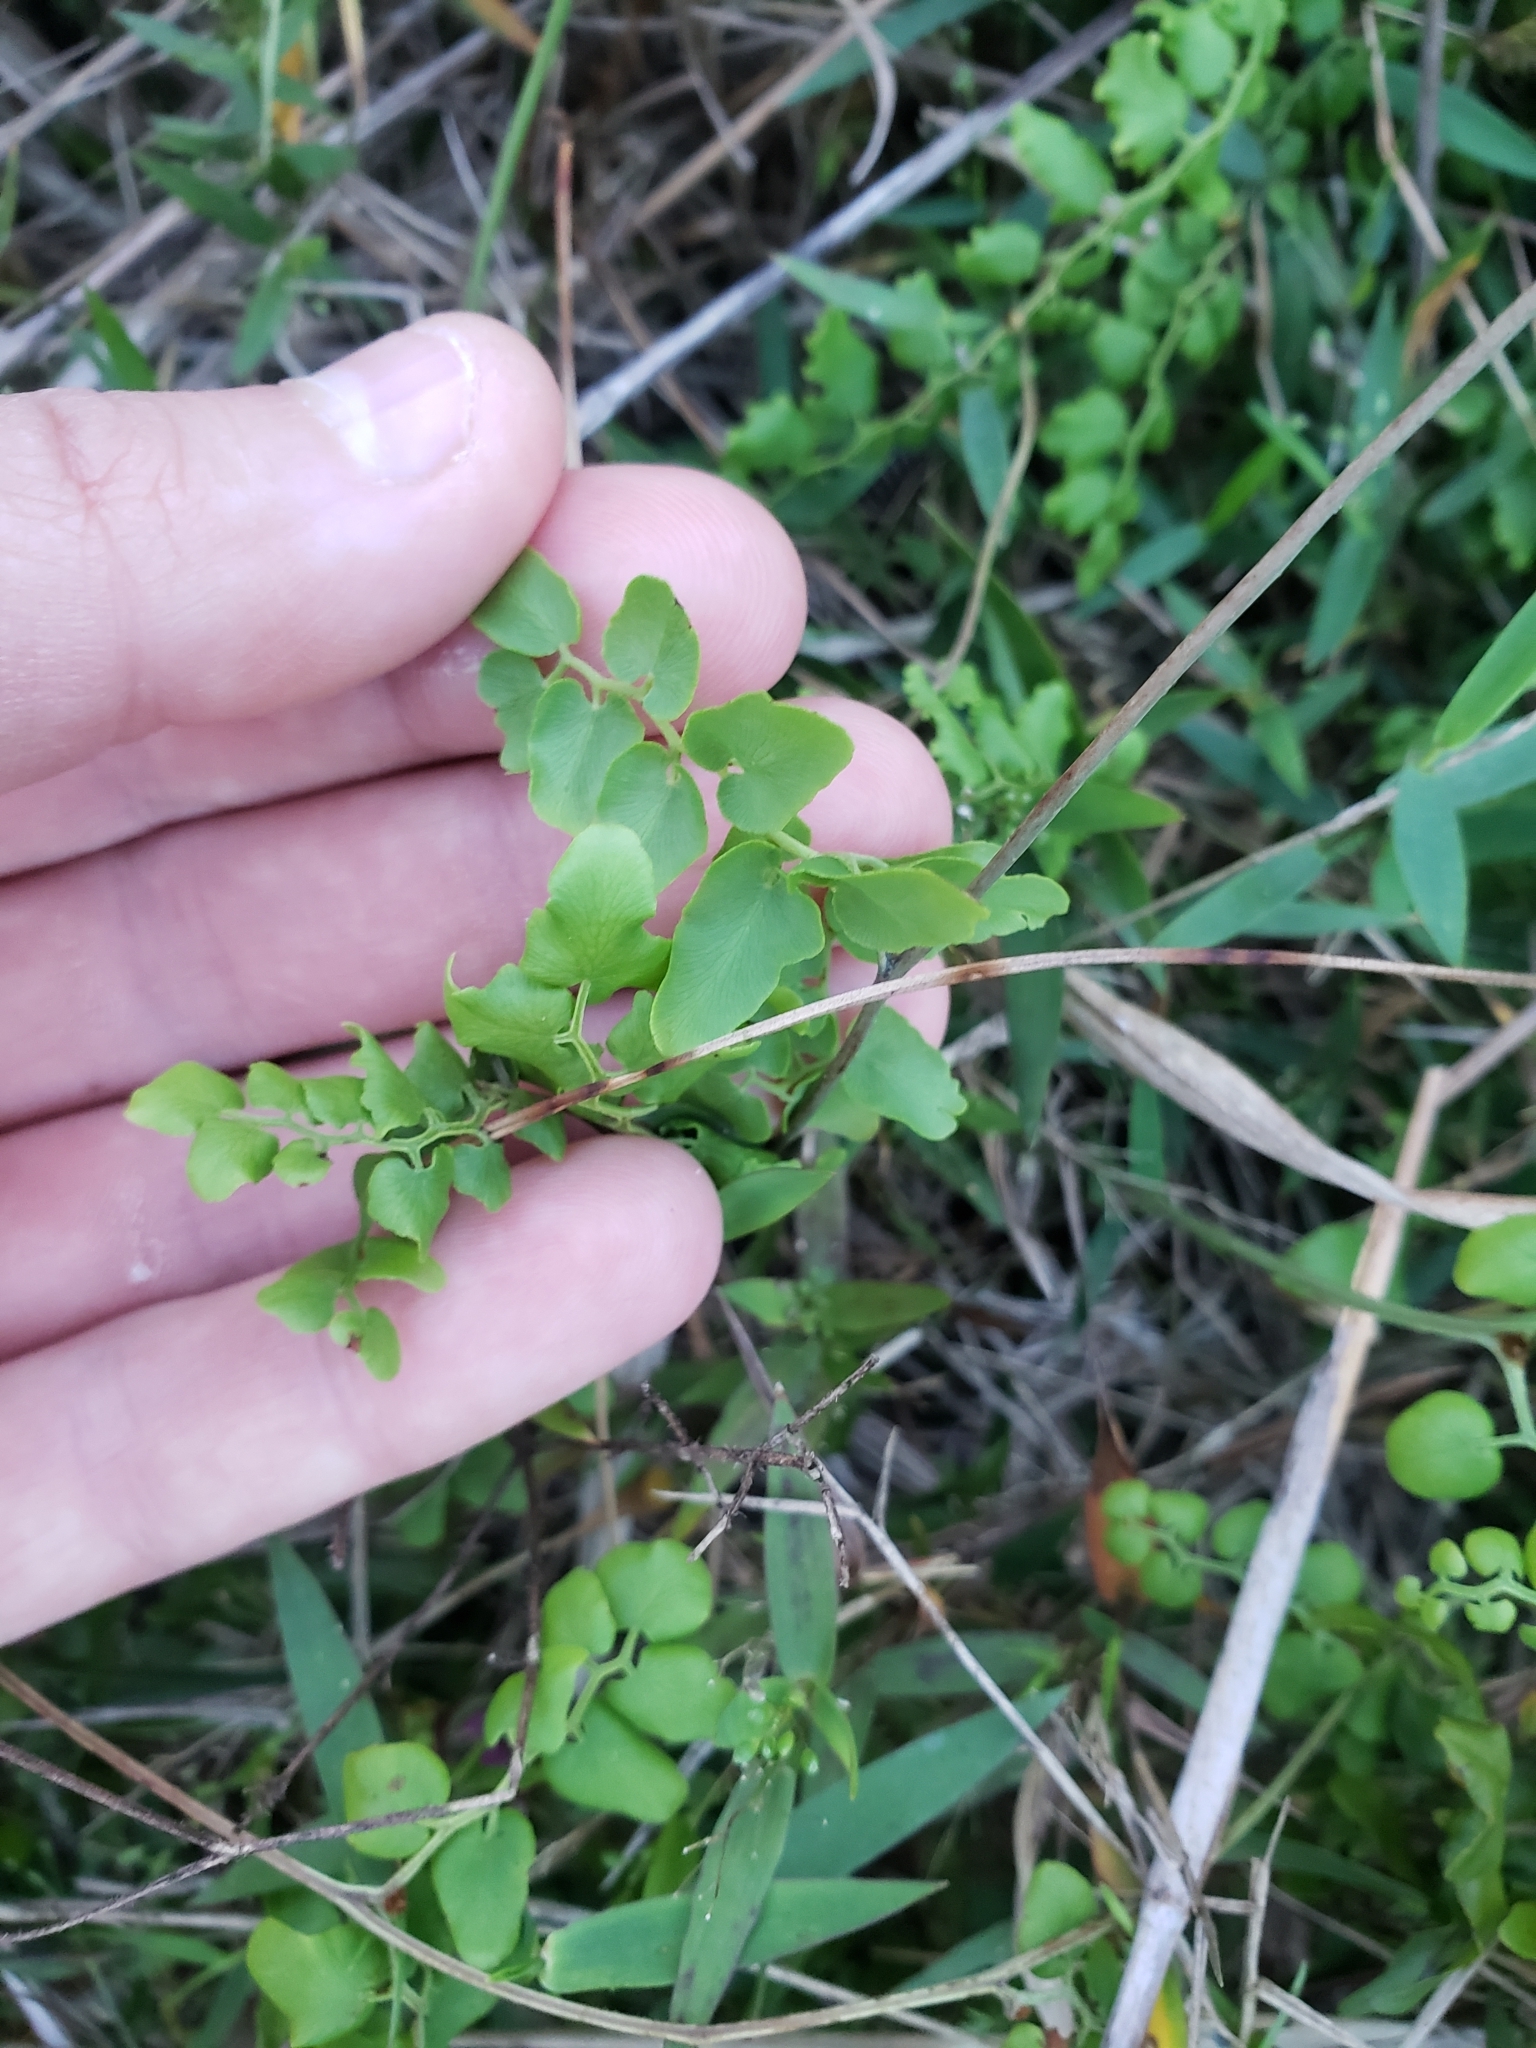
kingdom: Plantae
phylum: Tracheophyta
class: Polypodiopsida
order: Schizaeales
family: Lygodiaceae
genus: Lygodium
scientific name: Lygodium microphyllum
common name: Small-leaf climbing fern
